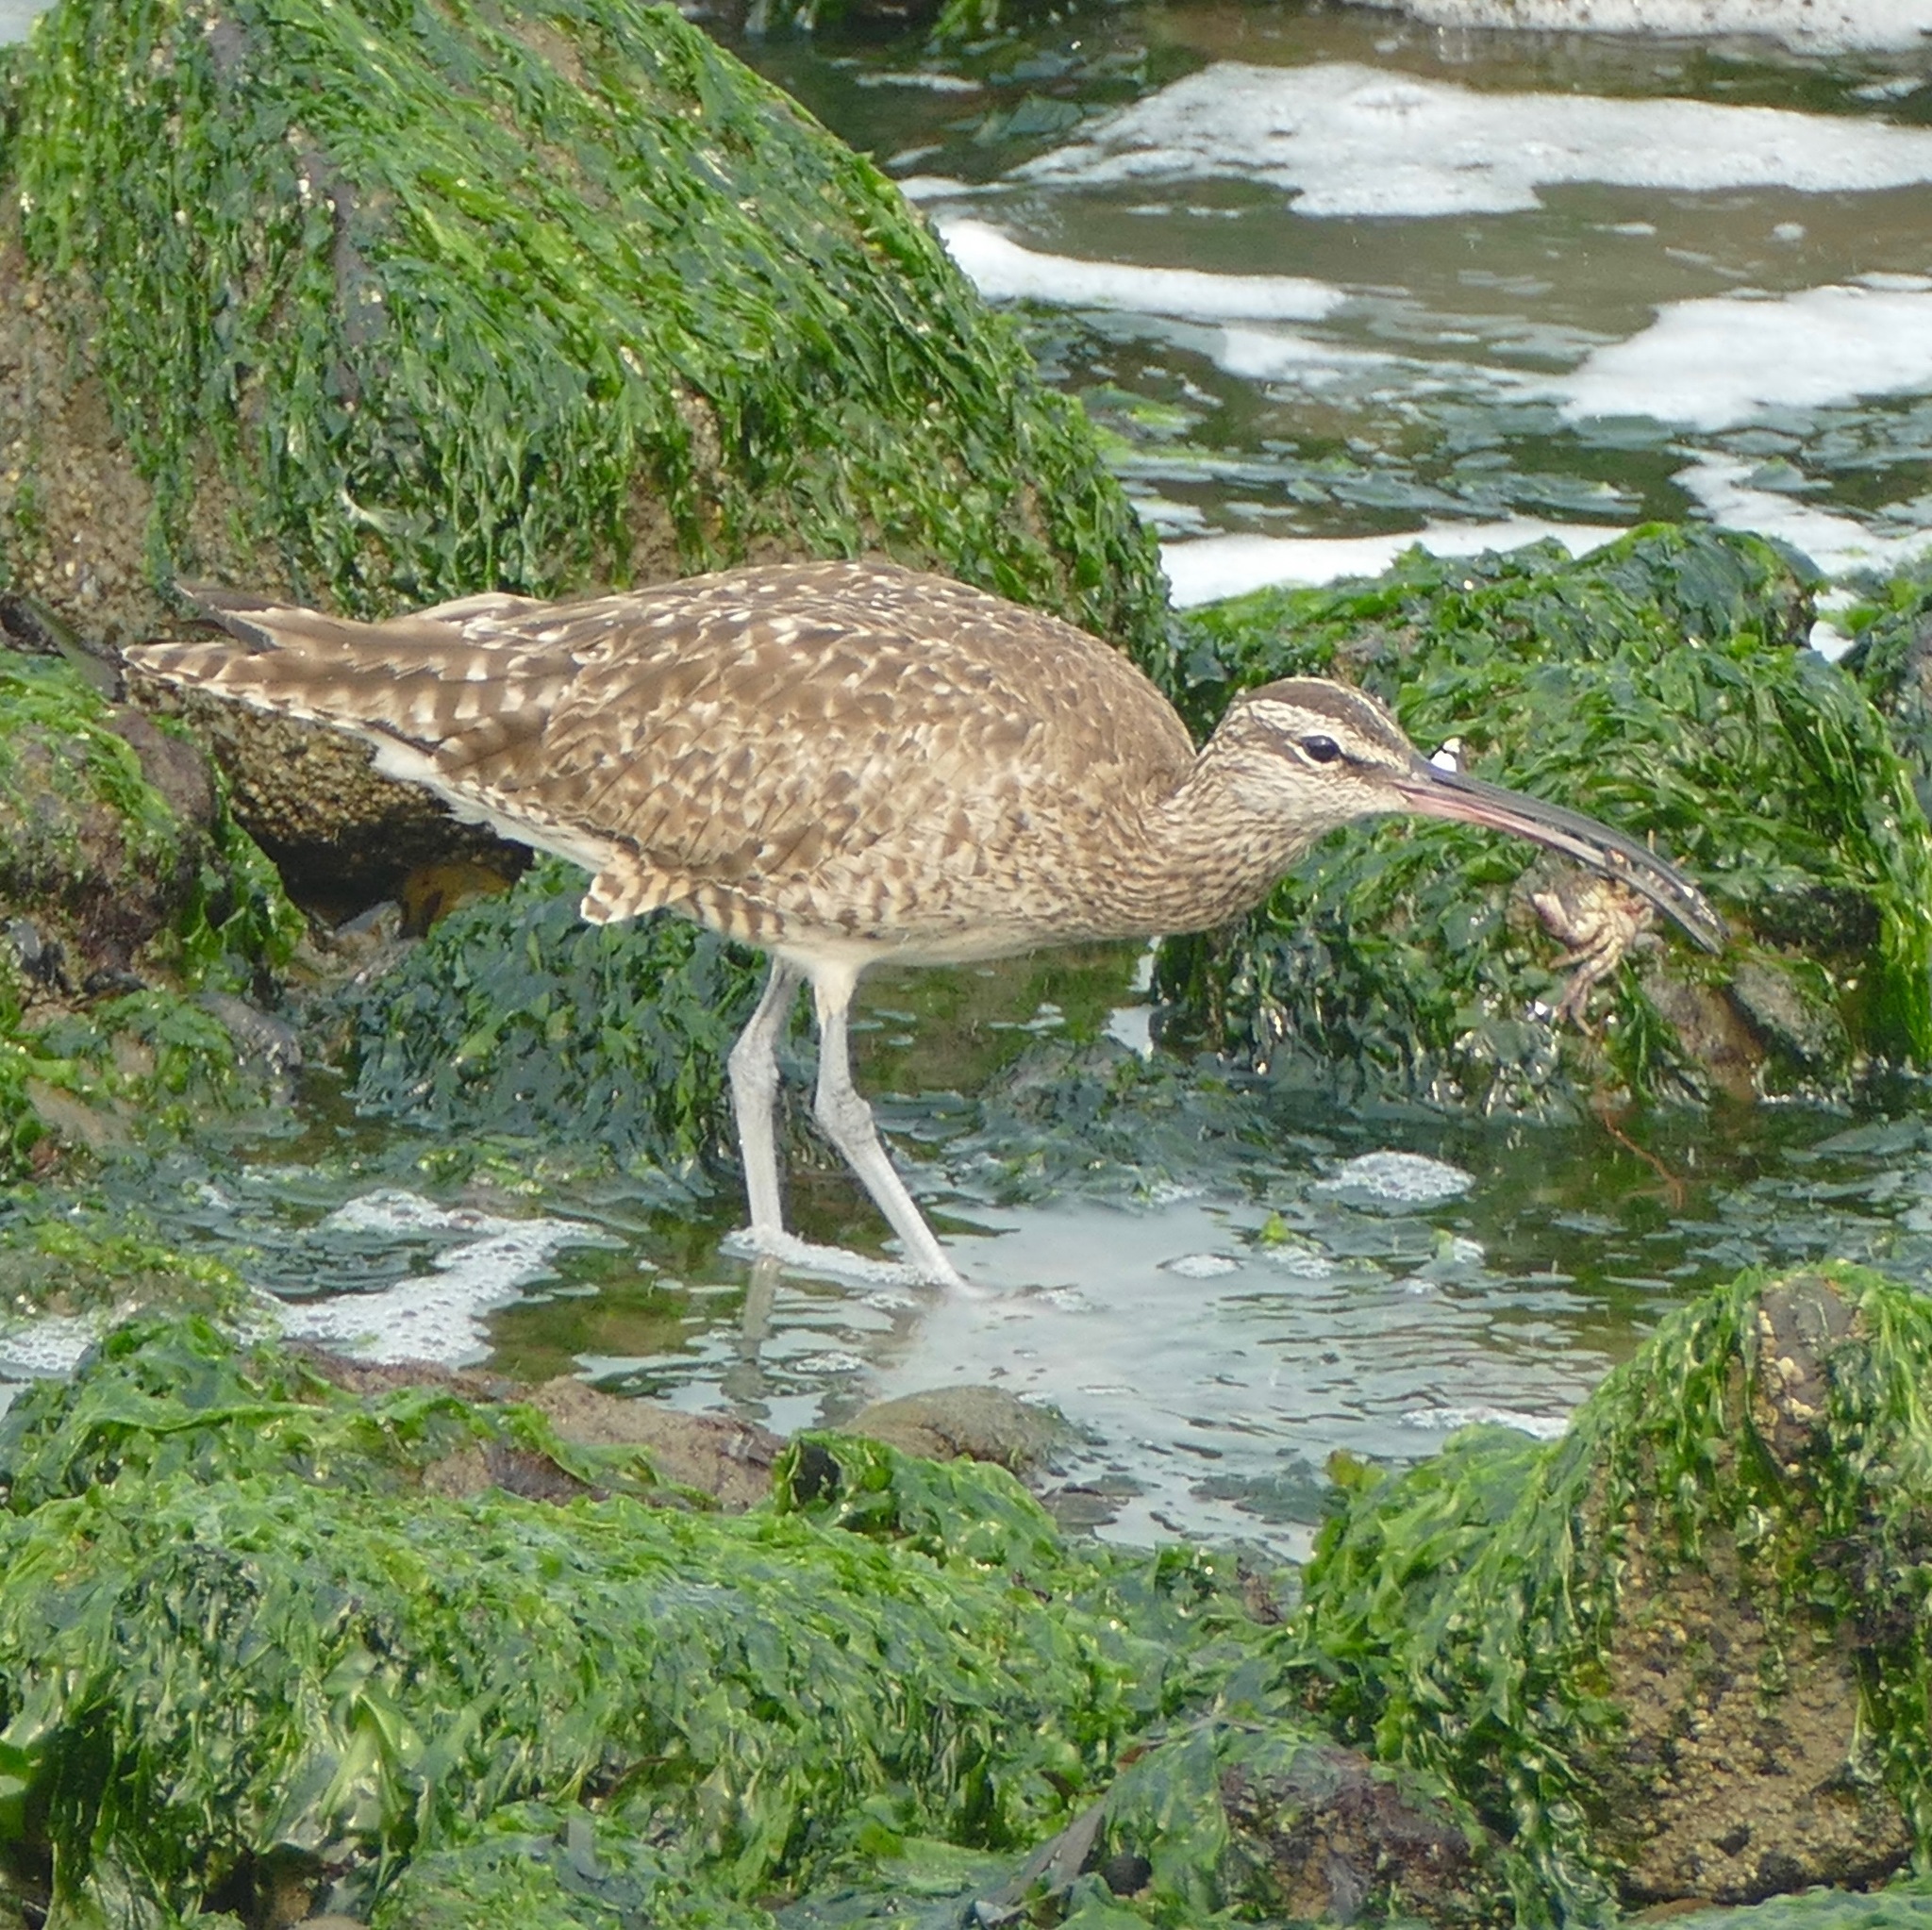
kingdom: Animalia
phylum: Chordata
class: Aves
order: Charadriiformes
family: Scolopacidae
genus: Numenius
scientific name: Numenius phaeopus
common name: Whimbrel
